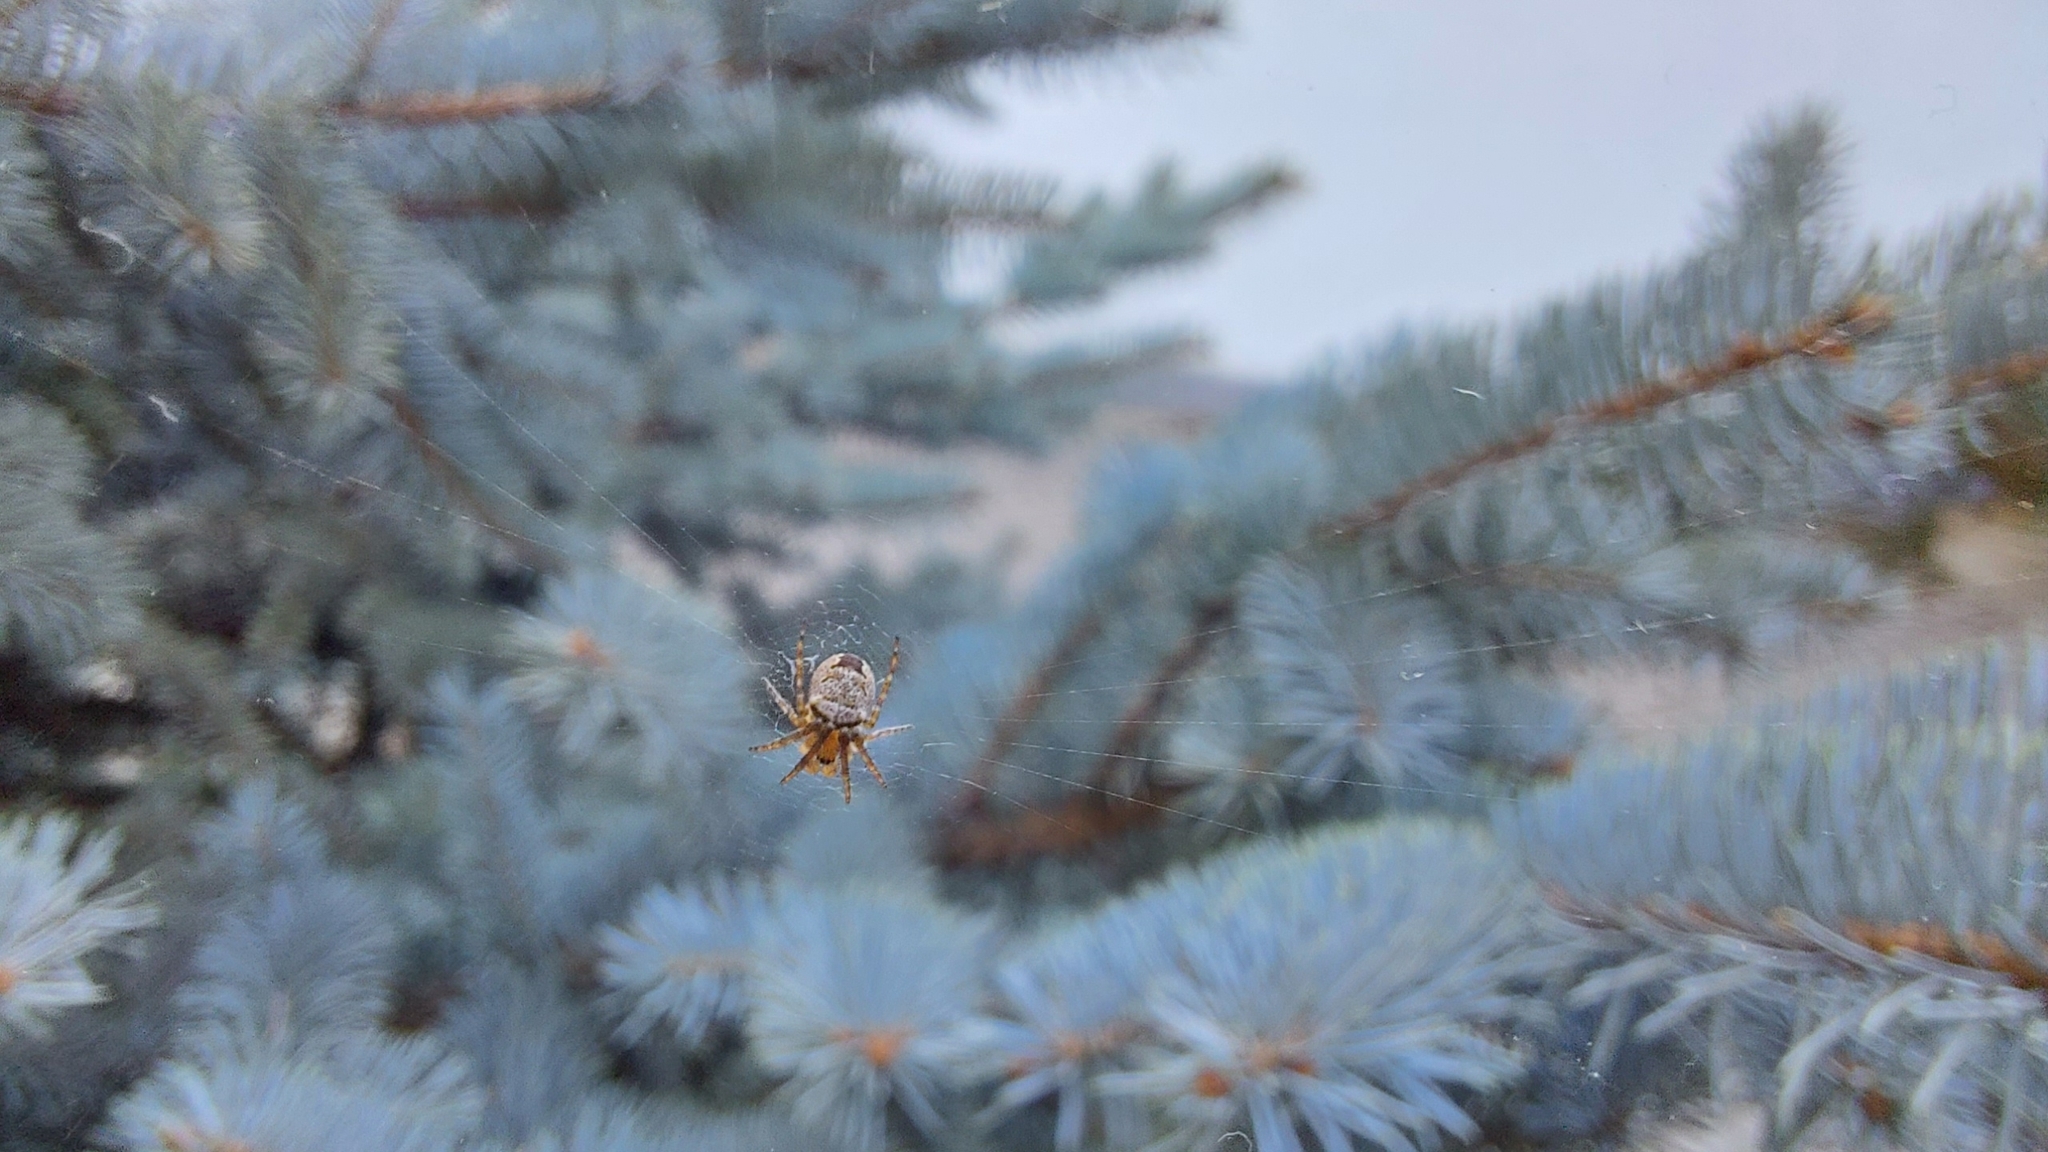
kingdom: Animalia
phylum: Arthropoda
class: Arachnida
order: Araneae
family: Araneidae
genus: Zilla
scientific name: Zilla diodia
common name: Zilla diodia
